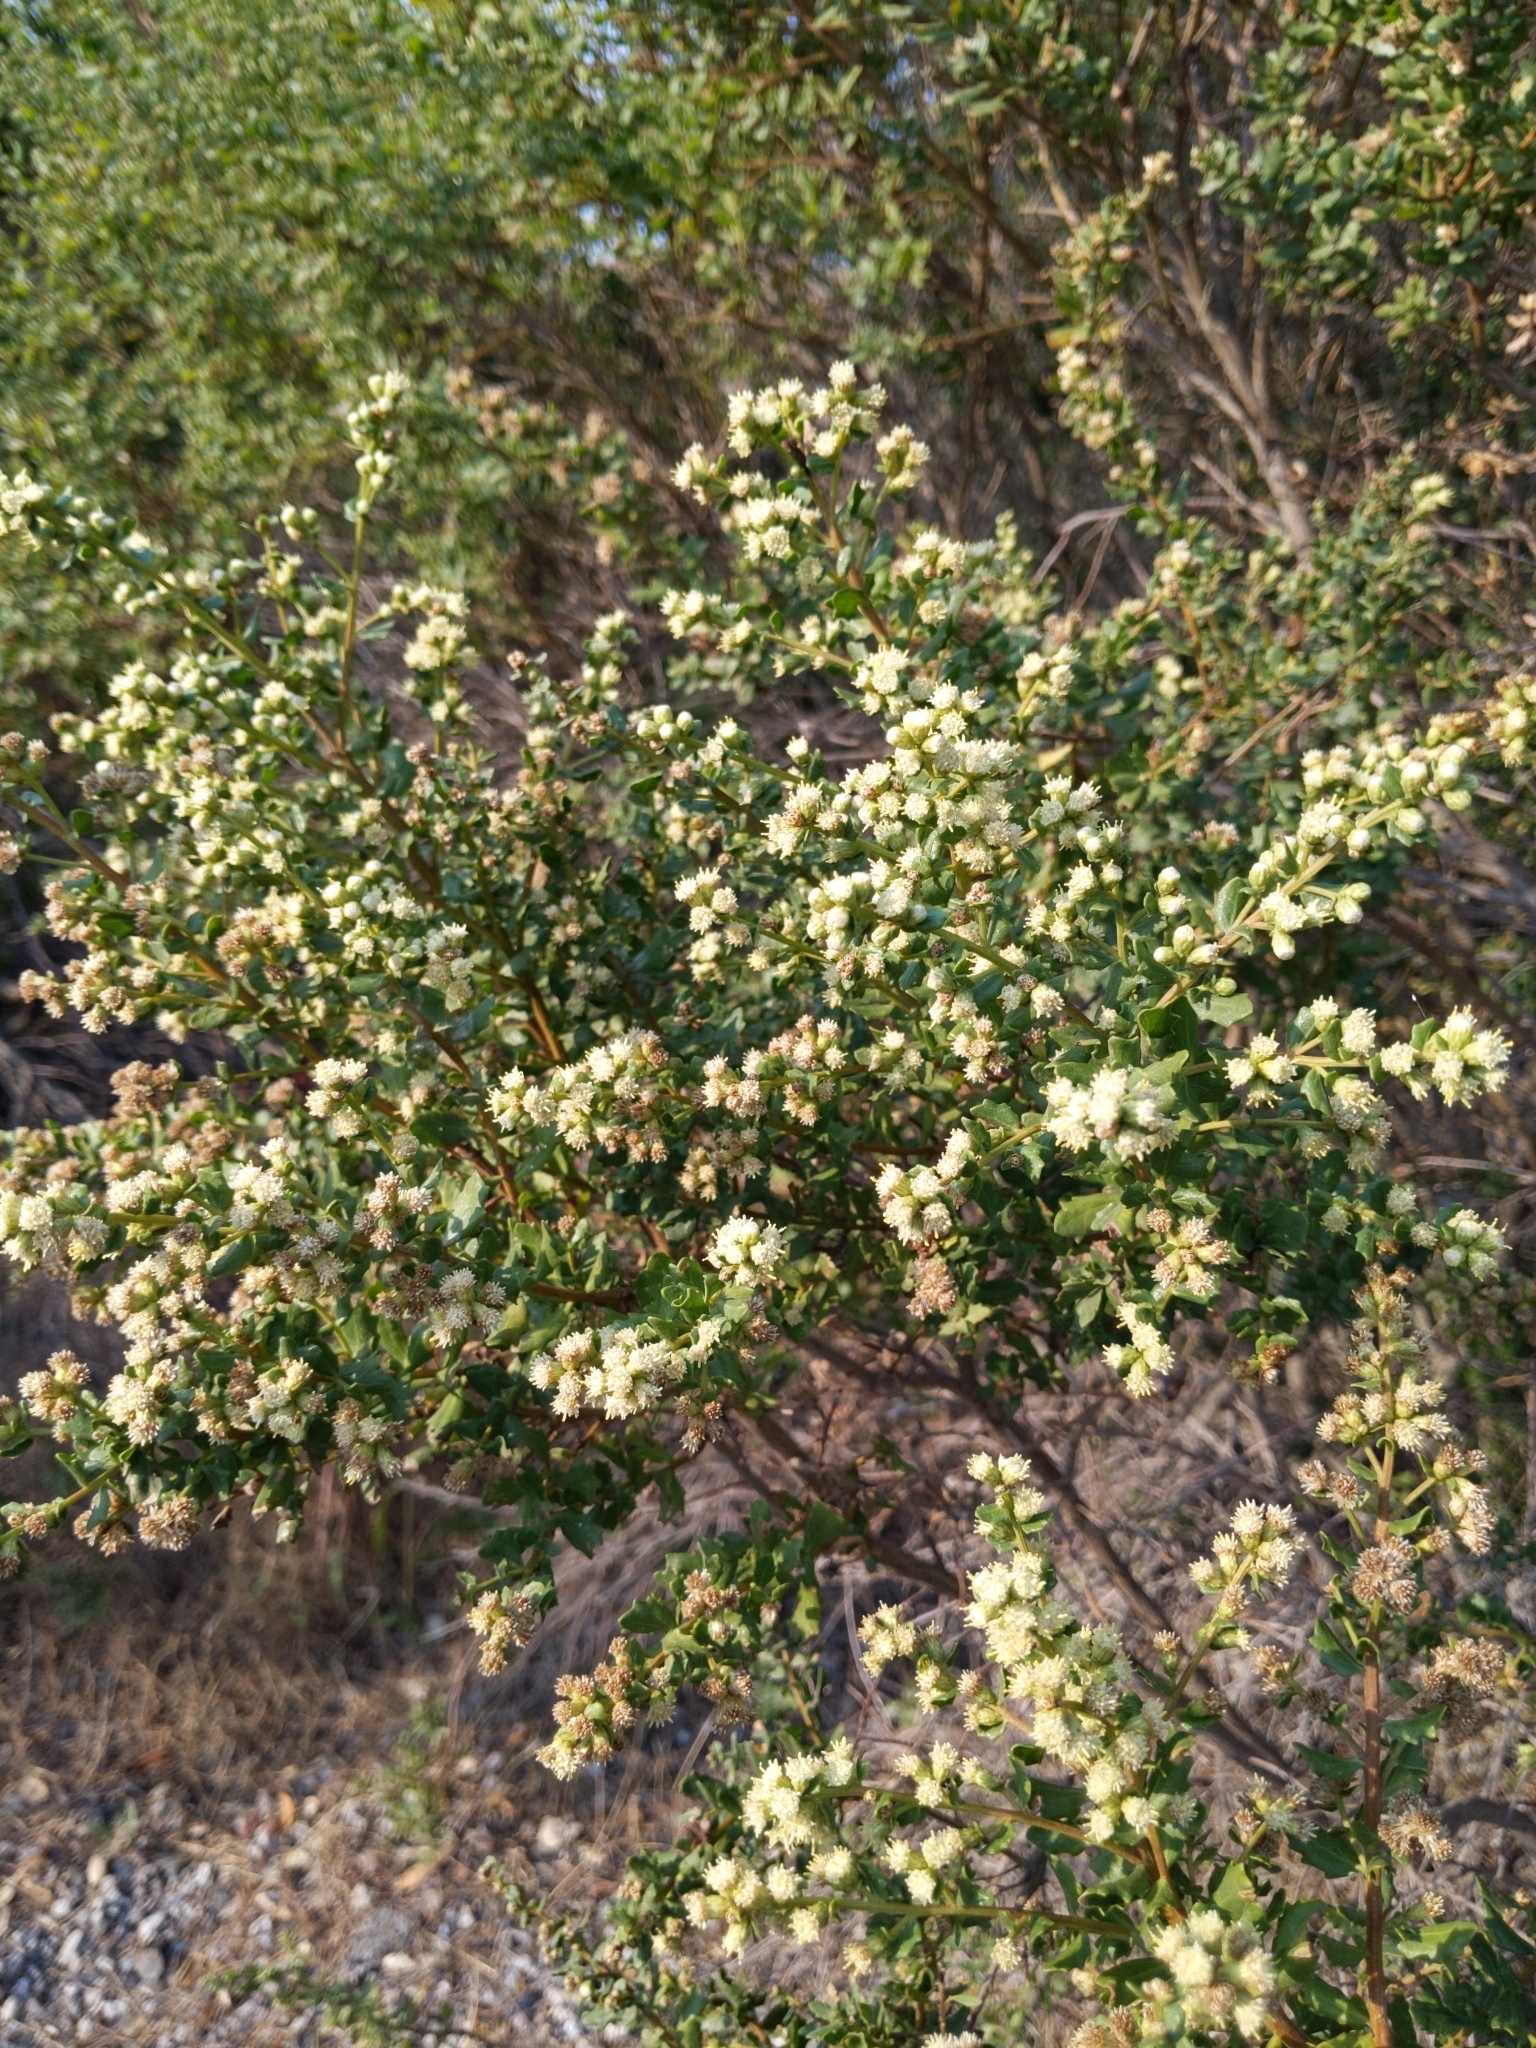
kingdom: Plantae
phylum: Tracheophyta
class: Magnoliopsida
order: Asterales
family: Asteraceae
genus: Baccharis
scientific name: Baccharis pilularis
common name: Coyotebrush
